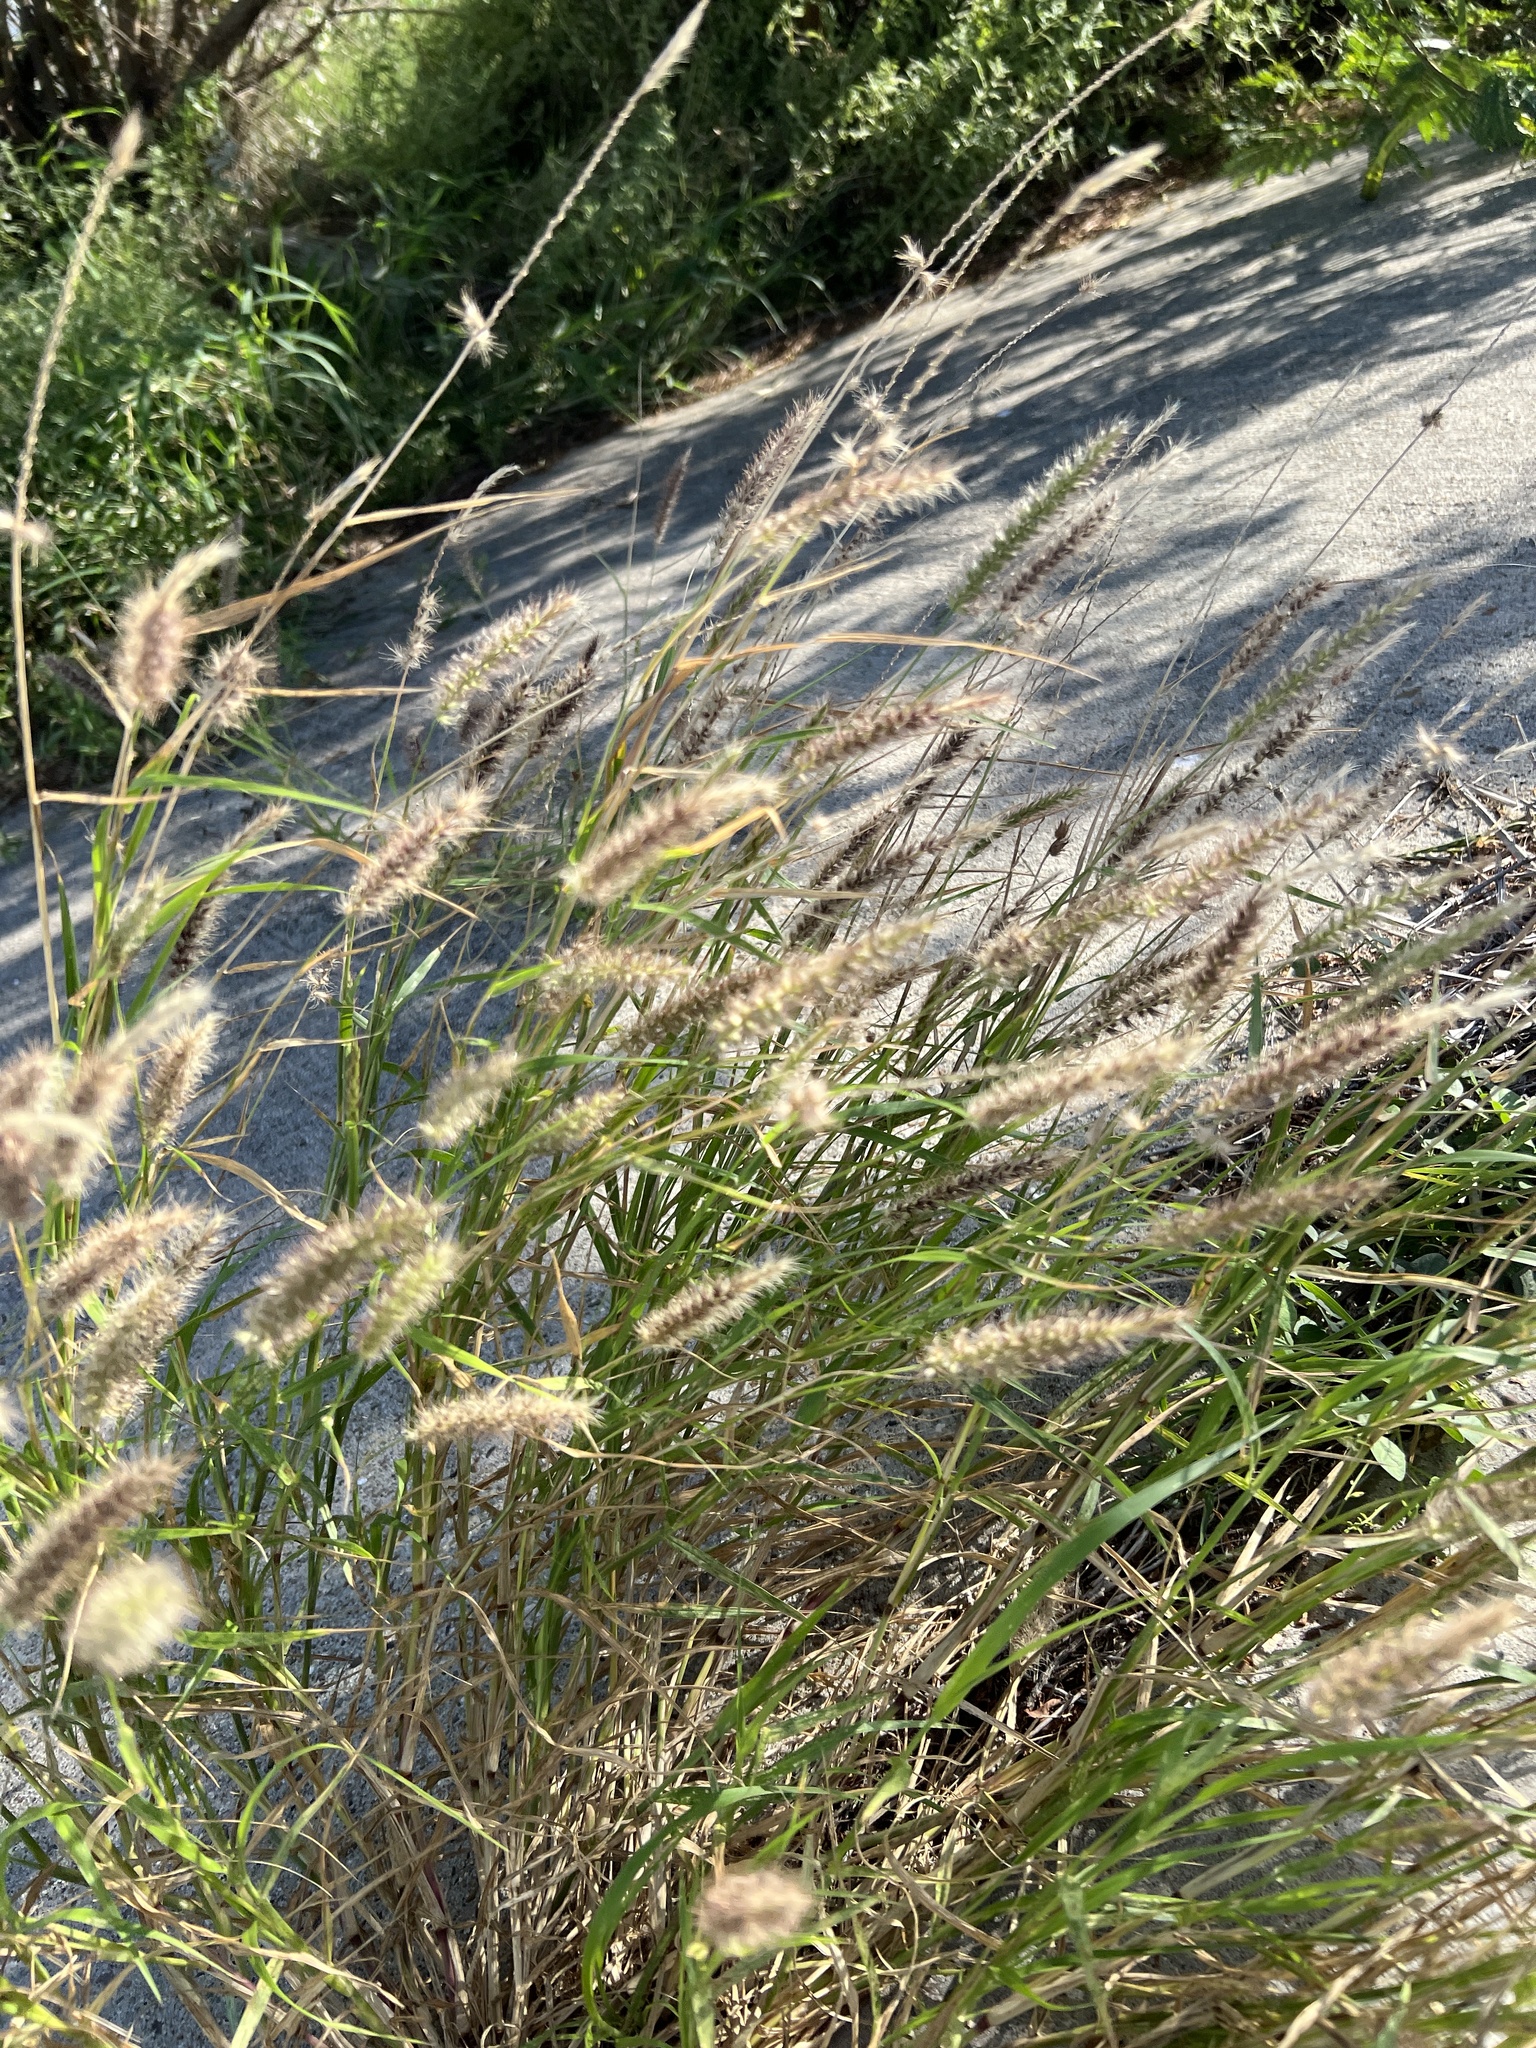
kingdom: Plantae
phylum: Tracheophyta
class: Liliopsida
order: Poales
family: Poaceae
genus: Cenchrus
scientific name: Cenchrus ciliaris
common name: Buffelgrass
